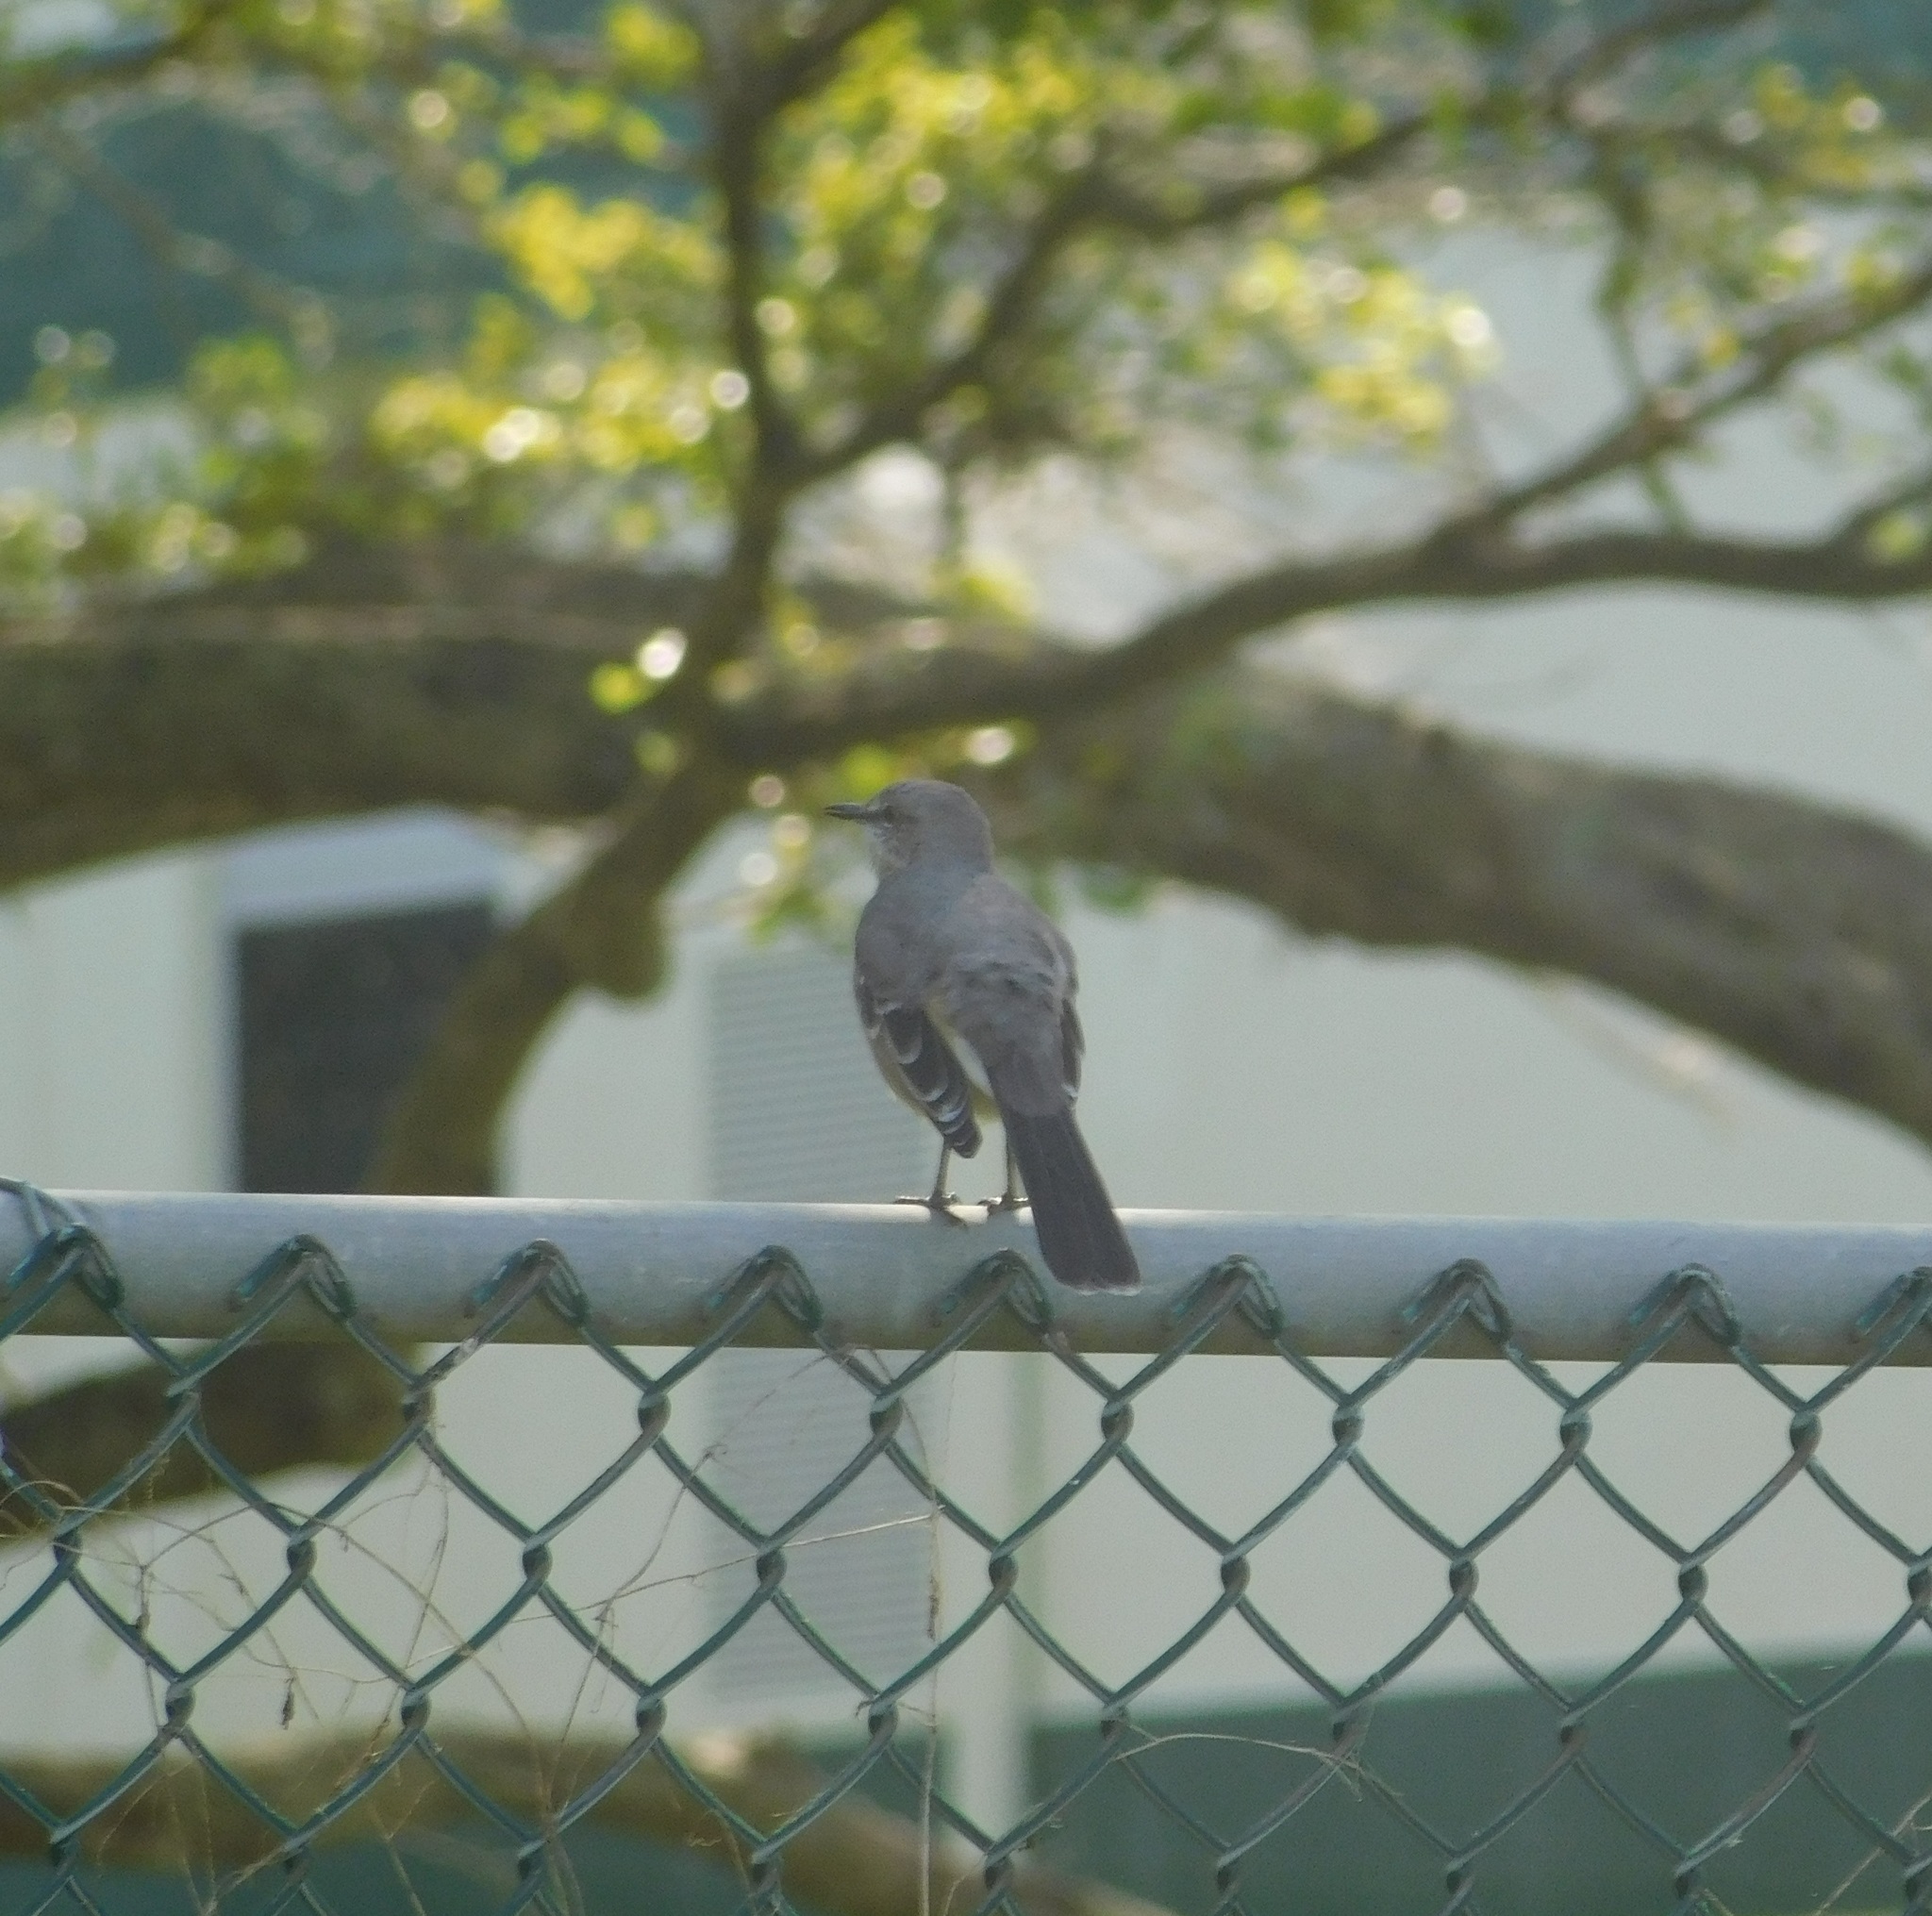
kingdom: Animalia
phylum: Chordata
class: Aves
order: Passeriformes
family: Mimidae
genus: Mimus
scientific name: Mimus polyglottos
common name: Northern mockingbird
